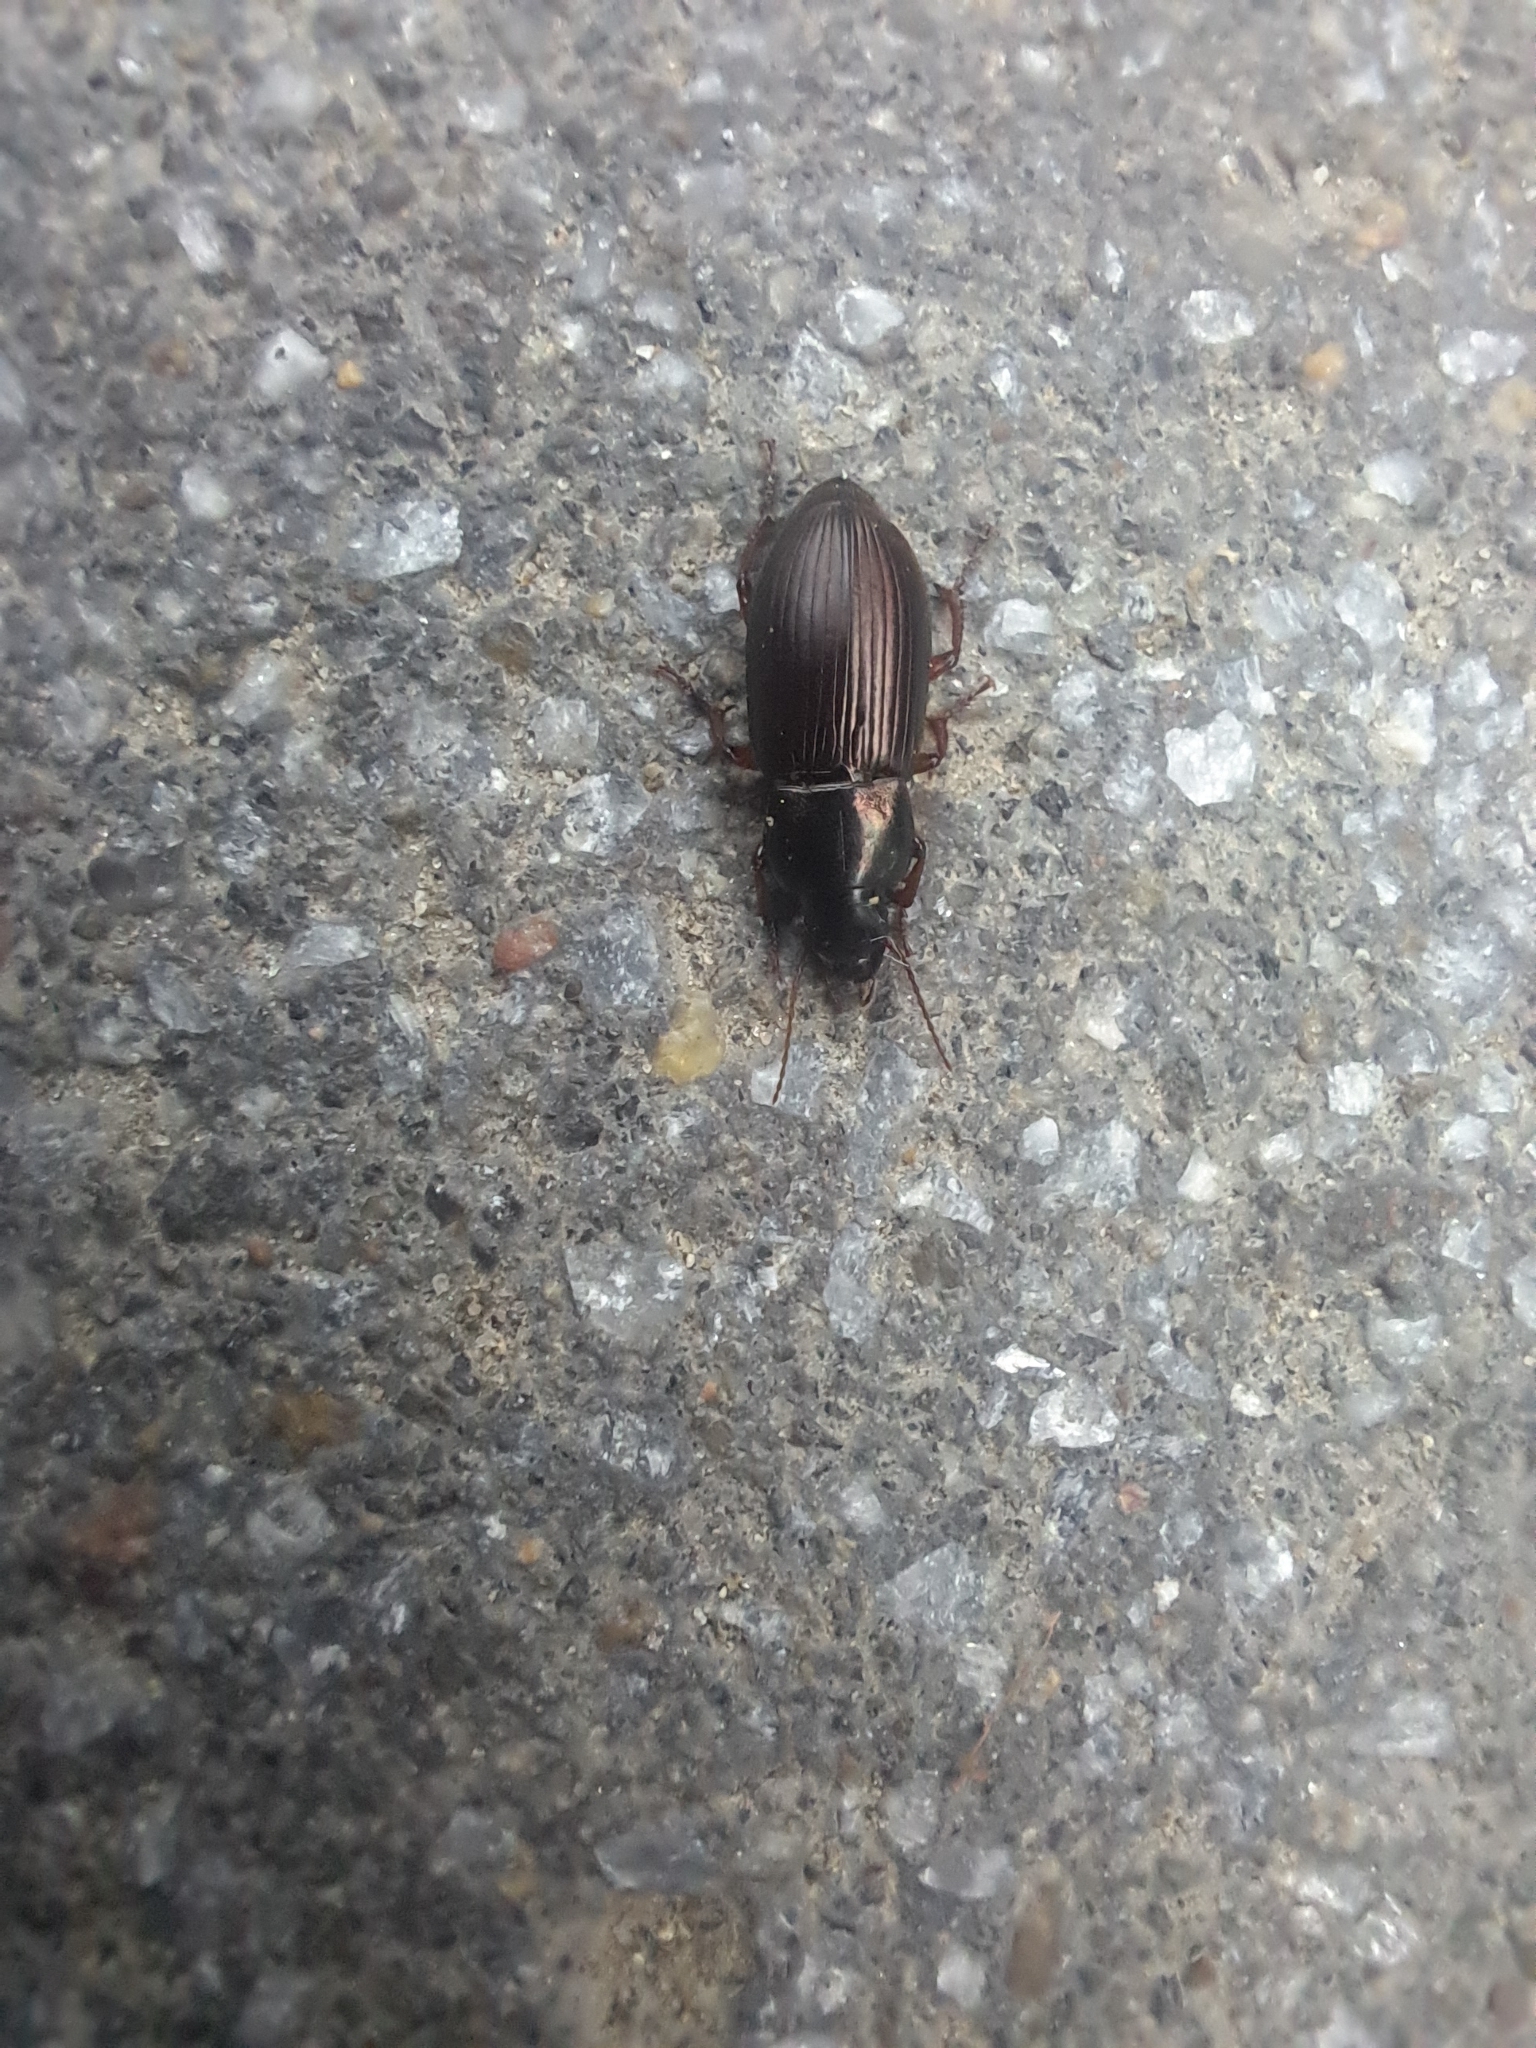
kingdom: Animalia
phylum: Arthropoda
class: Insecta
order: Coleoptera
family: Carabidae
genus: Harpalus
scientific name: Harpalus affinis
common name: Polychrome harp ground beetle
